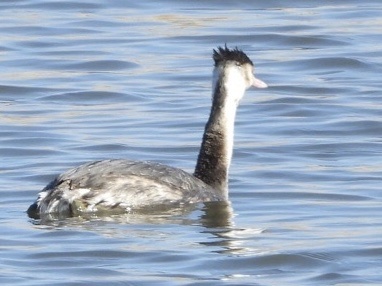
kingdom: Animalia
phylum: Chordata
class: Aves
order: Podicipediformes
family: Podicipedidae
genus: Podiceps
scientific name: Podiceps cristatus
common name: Great crested grebe
